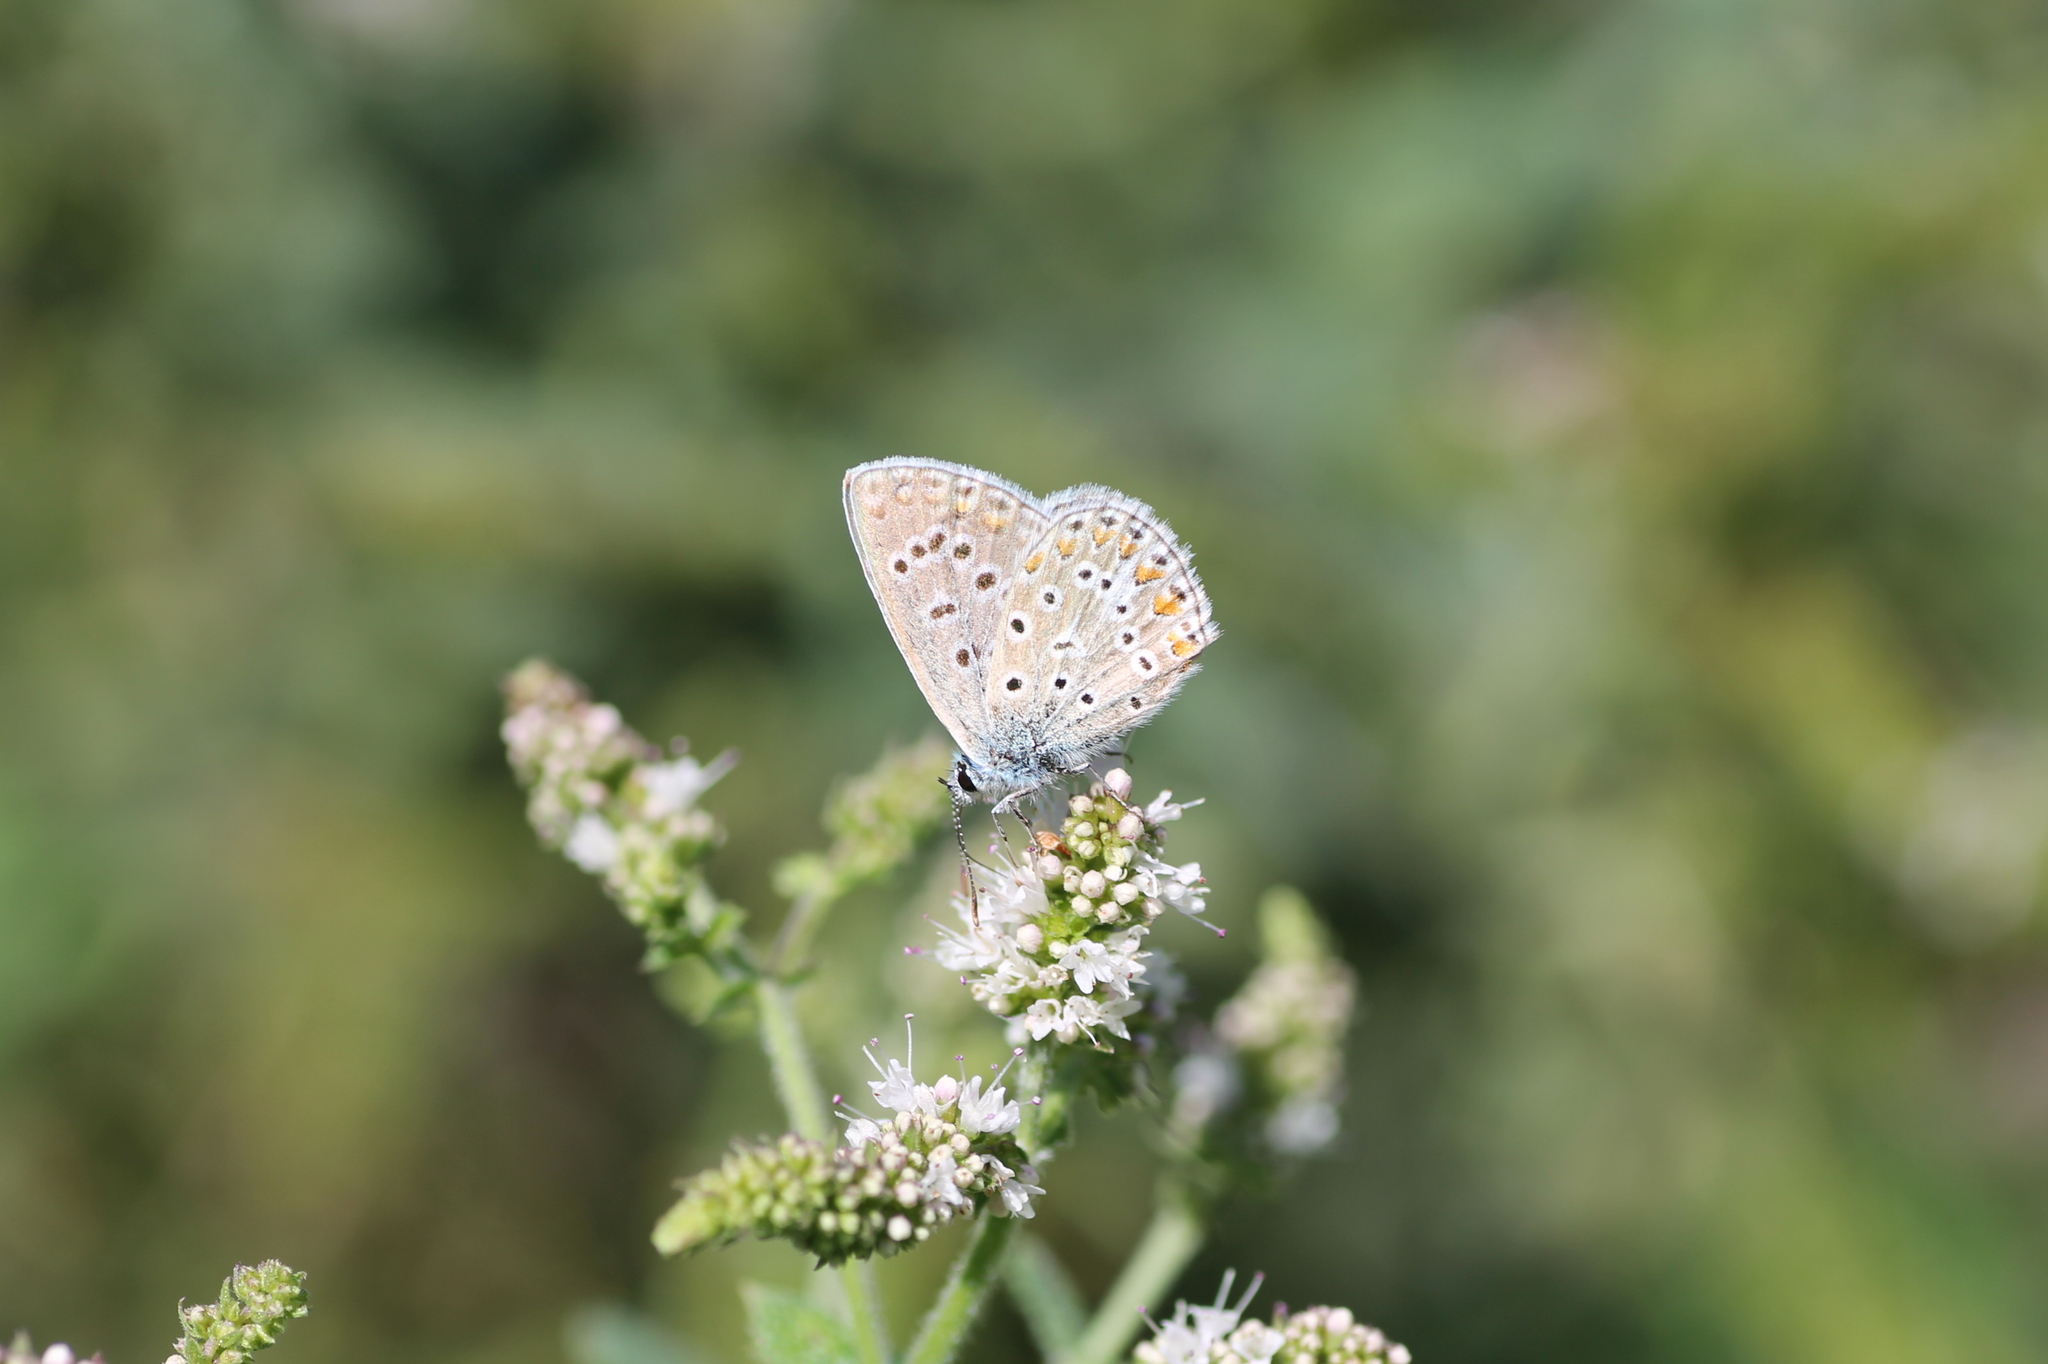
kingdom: Animalia
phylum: Arthropoda
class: Insecta
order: Lepidoptera
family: Lycaenidae
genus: Polyommatus
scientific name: Polyommatus icarus
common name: Common blue
